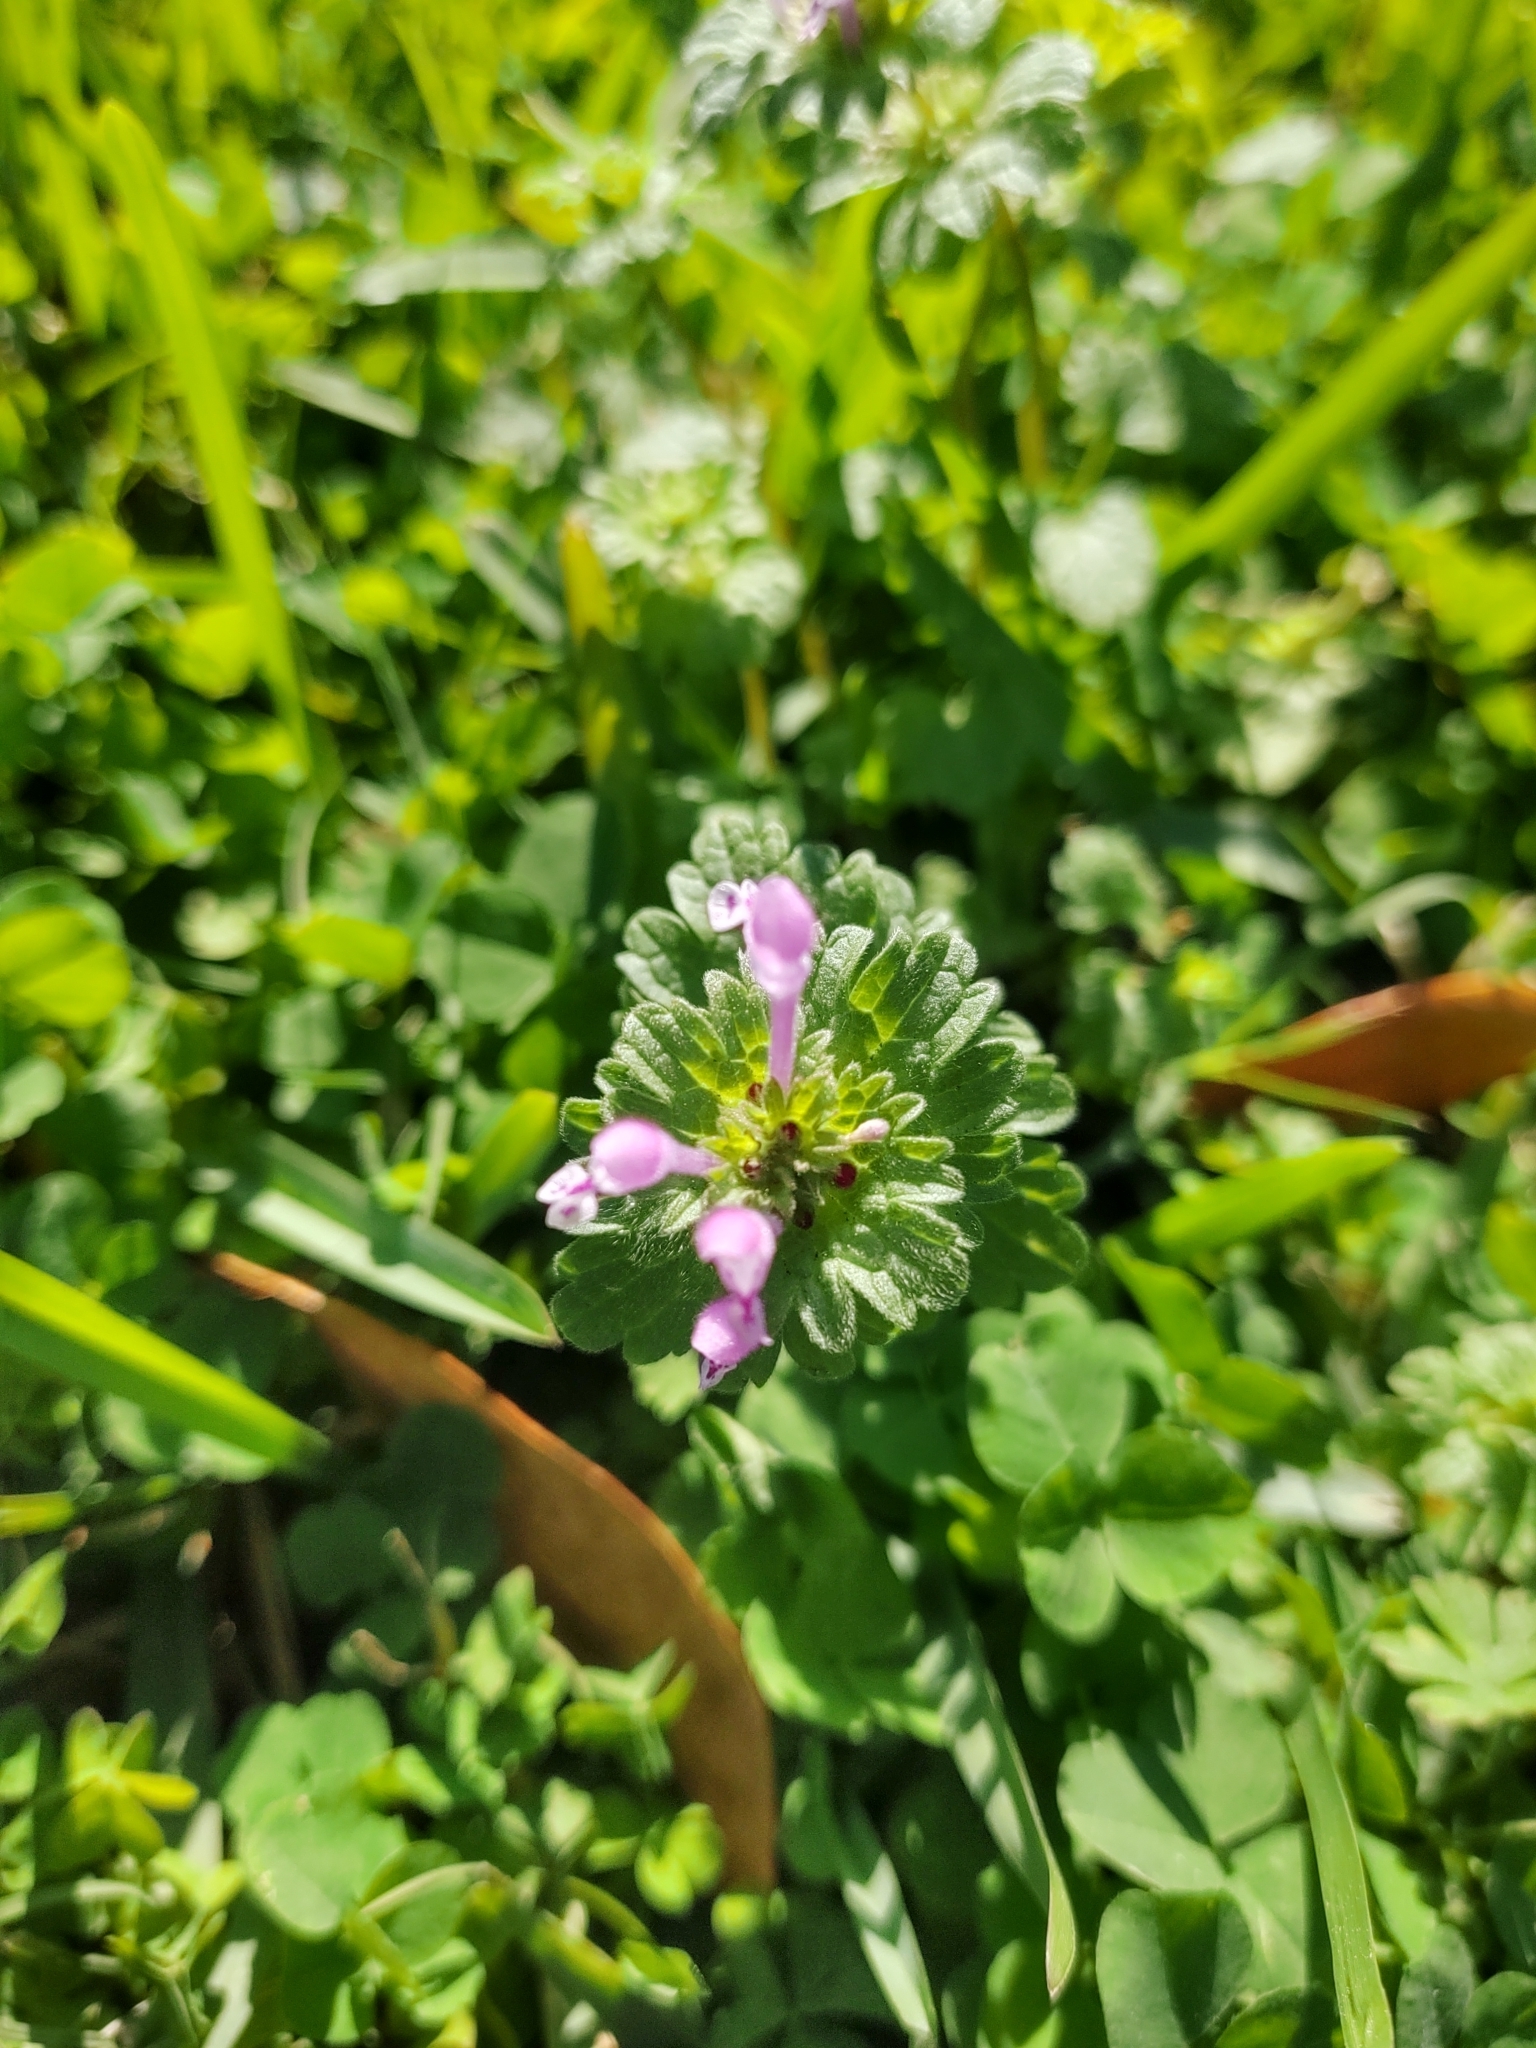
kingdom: Plantae
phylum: Tracheophyta
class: Magnoliopsida
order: Lamiales
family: Lamiaceae
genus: Lamium
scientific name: Lamium amplexicaule
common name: Henbit dead-nettle
